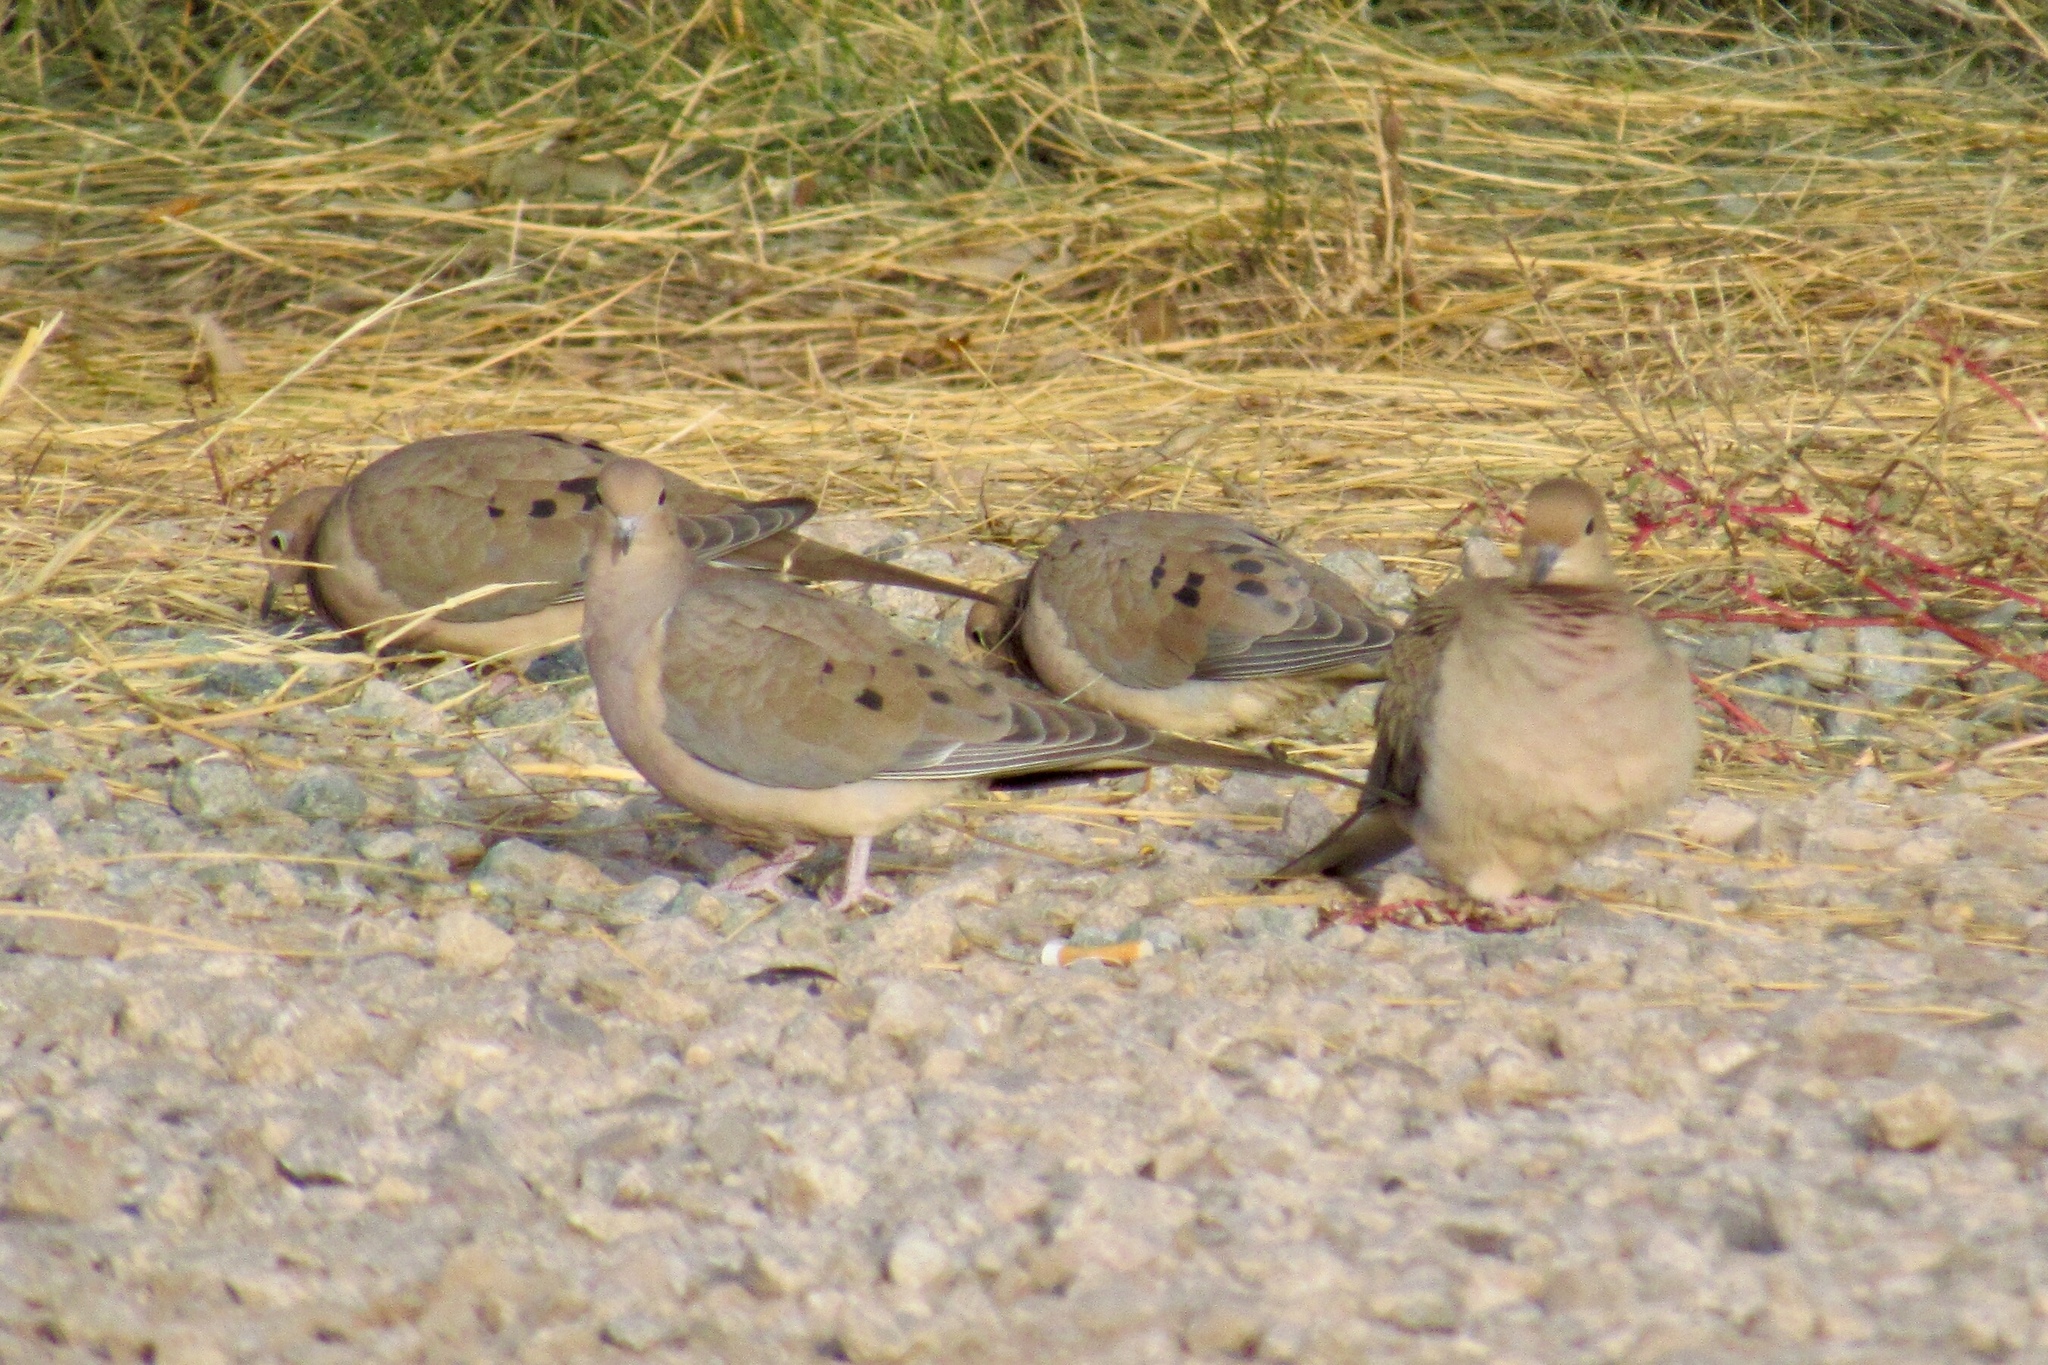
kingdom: Animalia
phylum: Chordata
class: Aves
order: Columbiformes
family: Columbidae
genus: Zenaida
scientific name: Zenaida macroura
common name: Mourning dove
